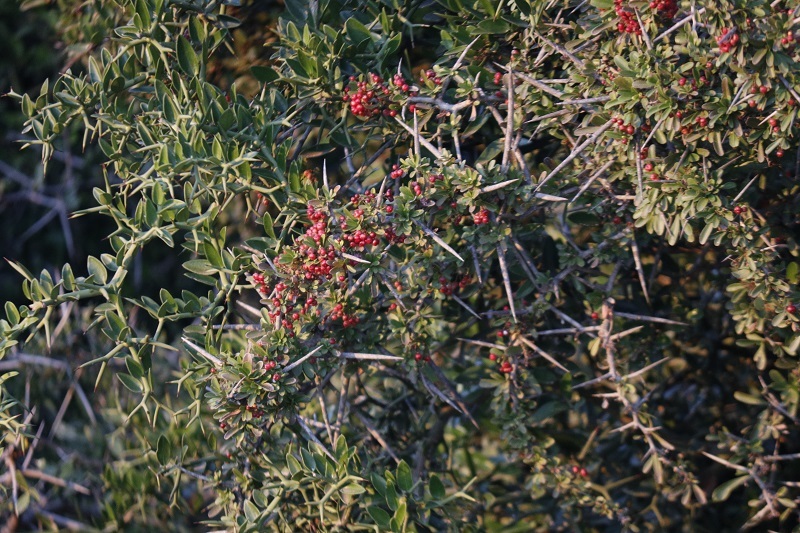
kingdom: Plantae
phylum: Tracheophyta
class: Magnoliopsida
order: Celastrales
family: Celastraceae
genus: Gymnosporia
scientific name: Gymnosporia polyacantha
